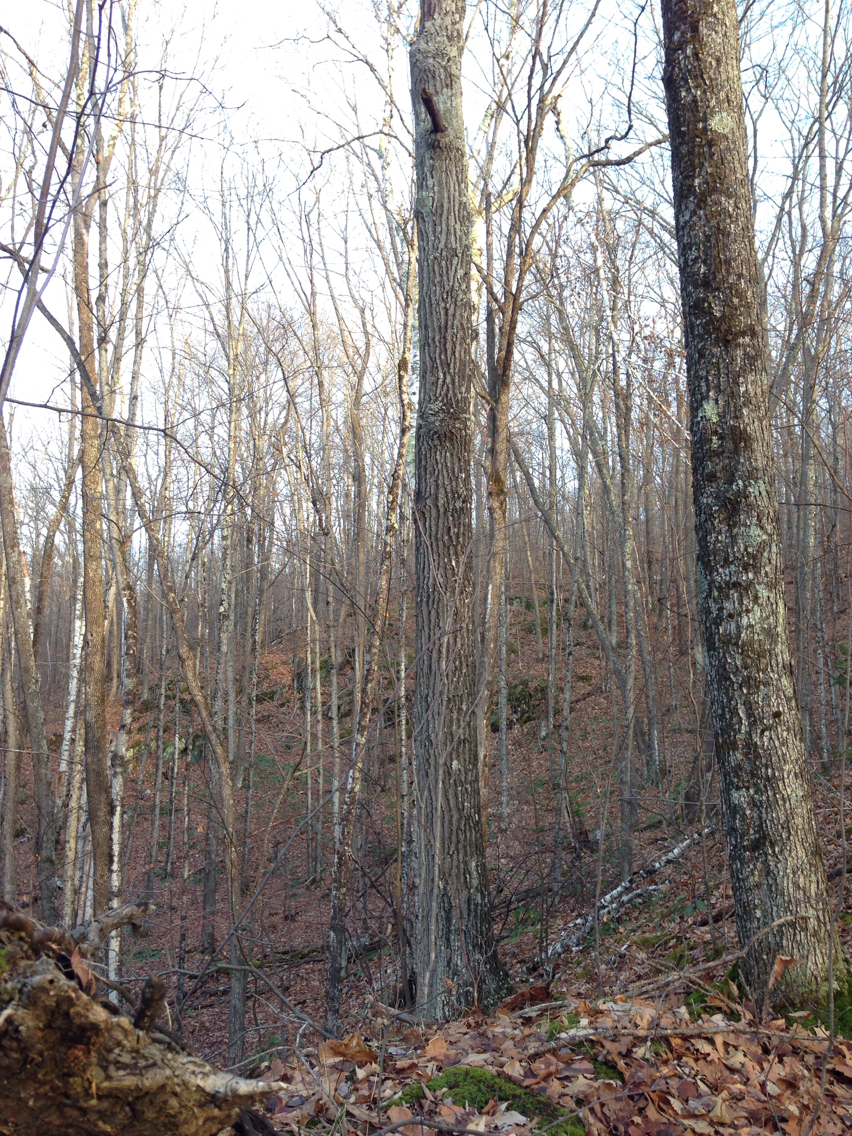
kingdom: Plantae
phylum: Tracheophyta
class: Magnoliopsida
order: Malpighiales
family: Salicaceae
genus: Populus
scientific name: Populus grandidentata
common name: Bigtooth aspen
